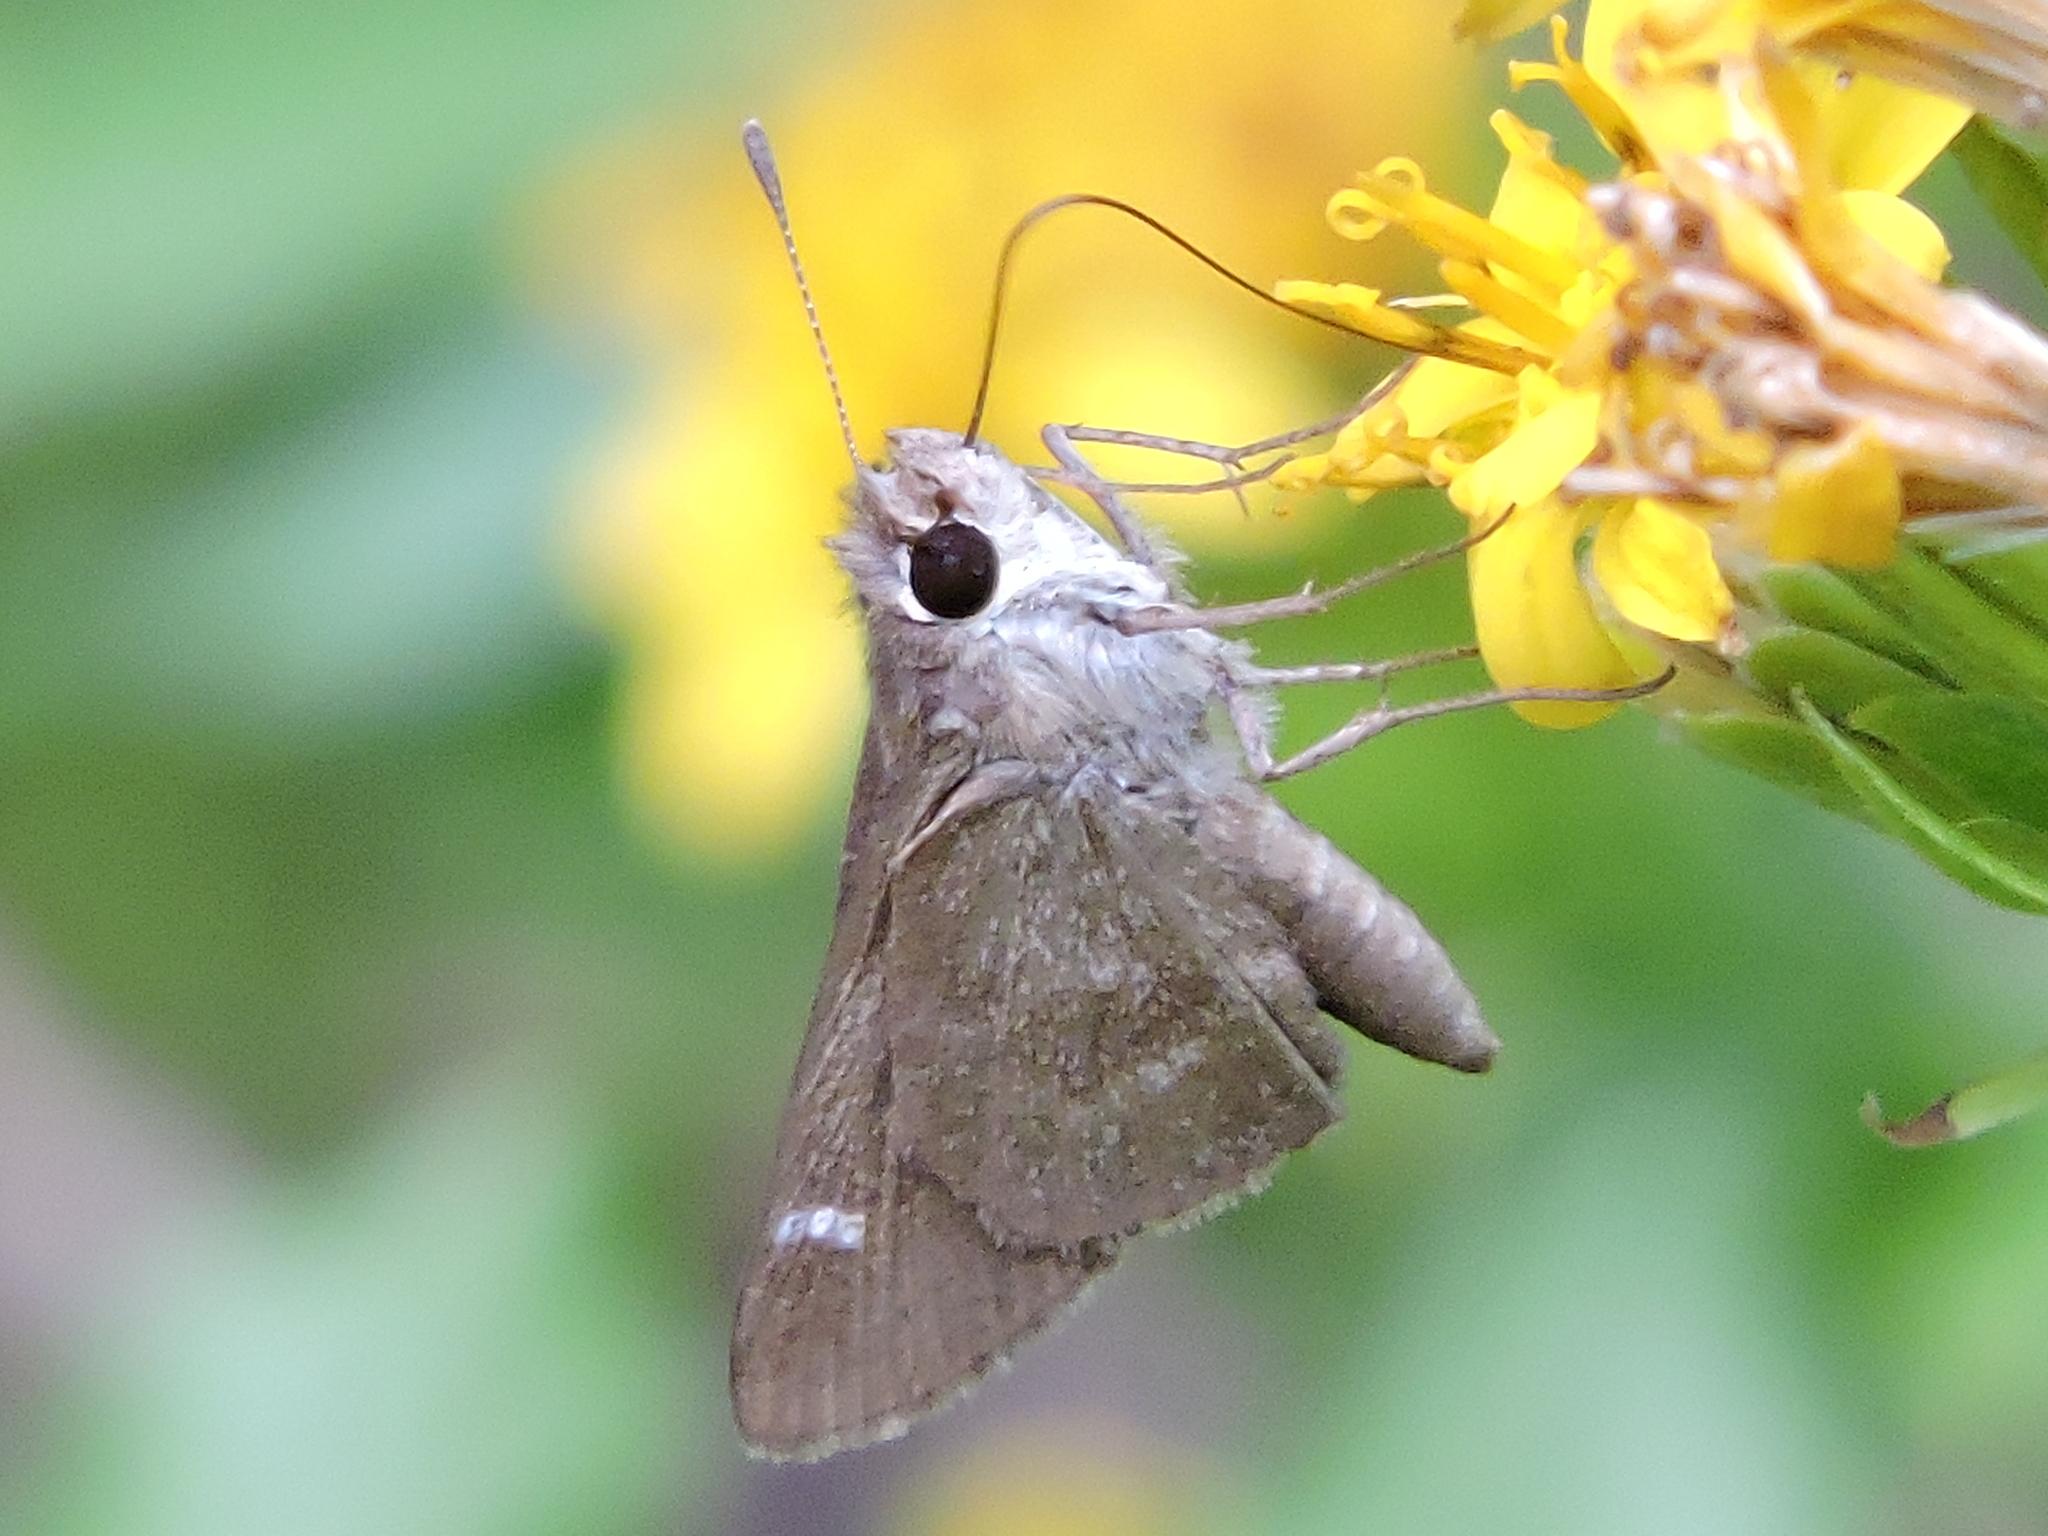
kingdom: Animalia
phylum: Arthropoda
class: Insecta
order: Lepidoptera
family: Hesperiidae
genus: Lerodea
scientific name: Lerodea eufala
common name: Eufala skipper
